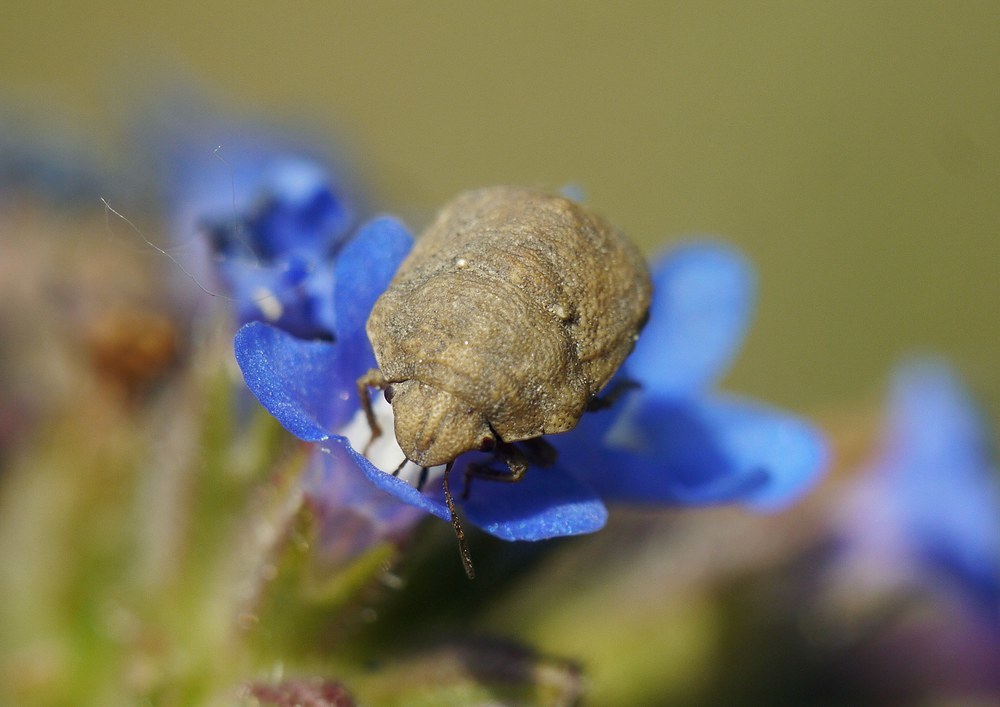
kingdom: Animalia
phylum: Arthropoda
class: Insecta
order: Hemiptera
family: Scutelleridae
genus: Psacasta
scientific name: Psacasta neglecta
